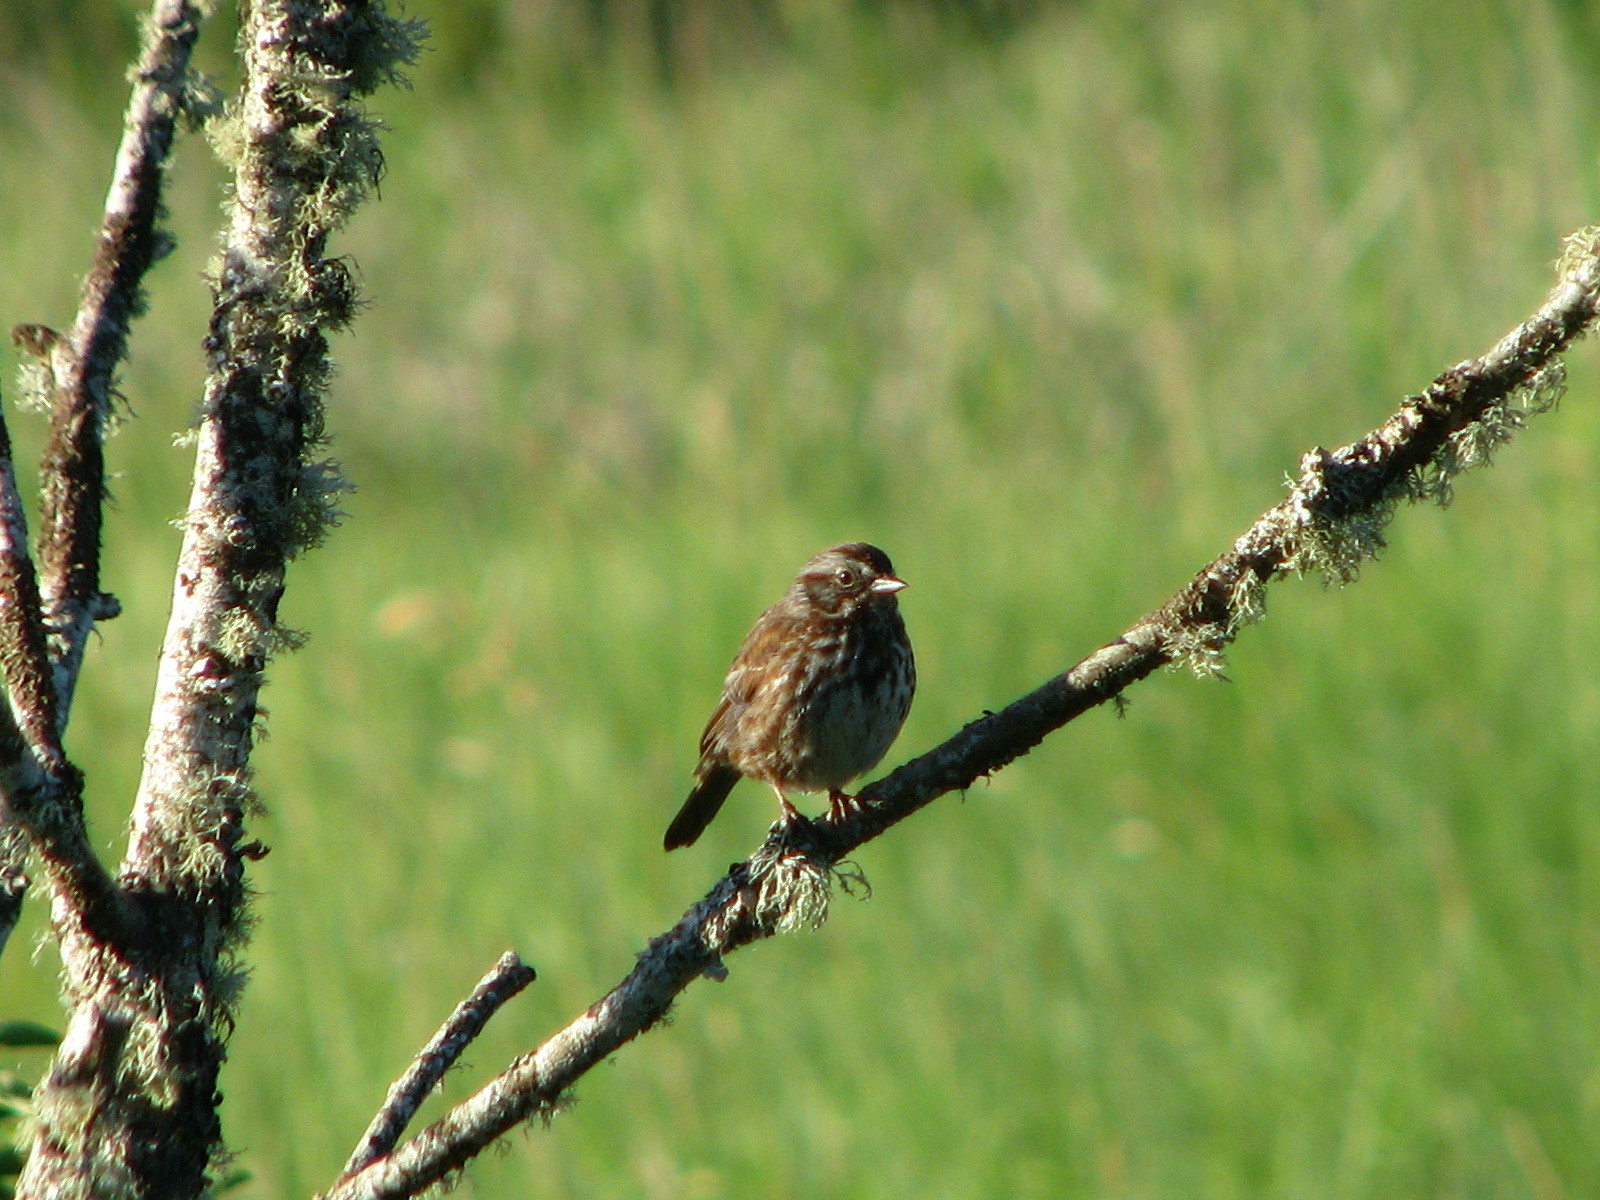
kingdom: Animalia
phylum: Chordata
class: Aves
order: Passeriformes
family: Passerellidae
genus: Melospiza
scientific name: Melospiza melodia
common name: Song sparrow
